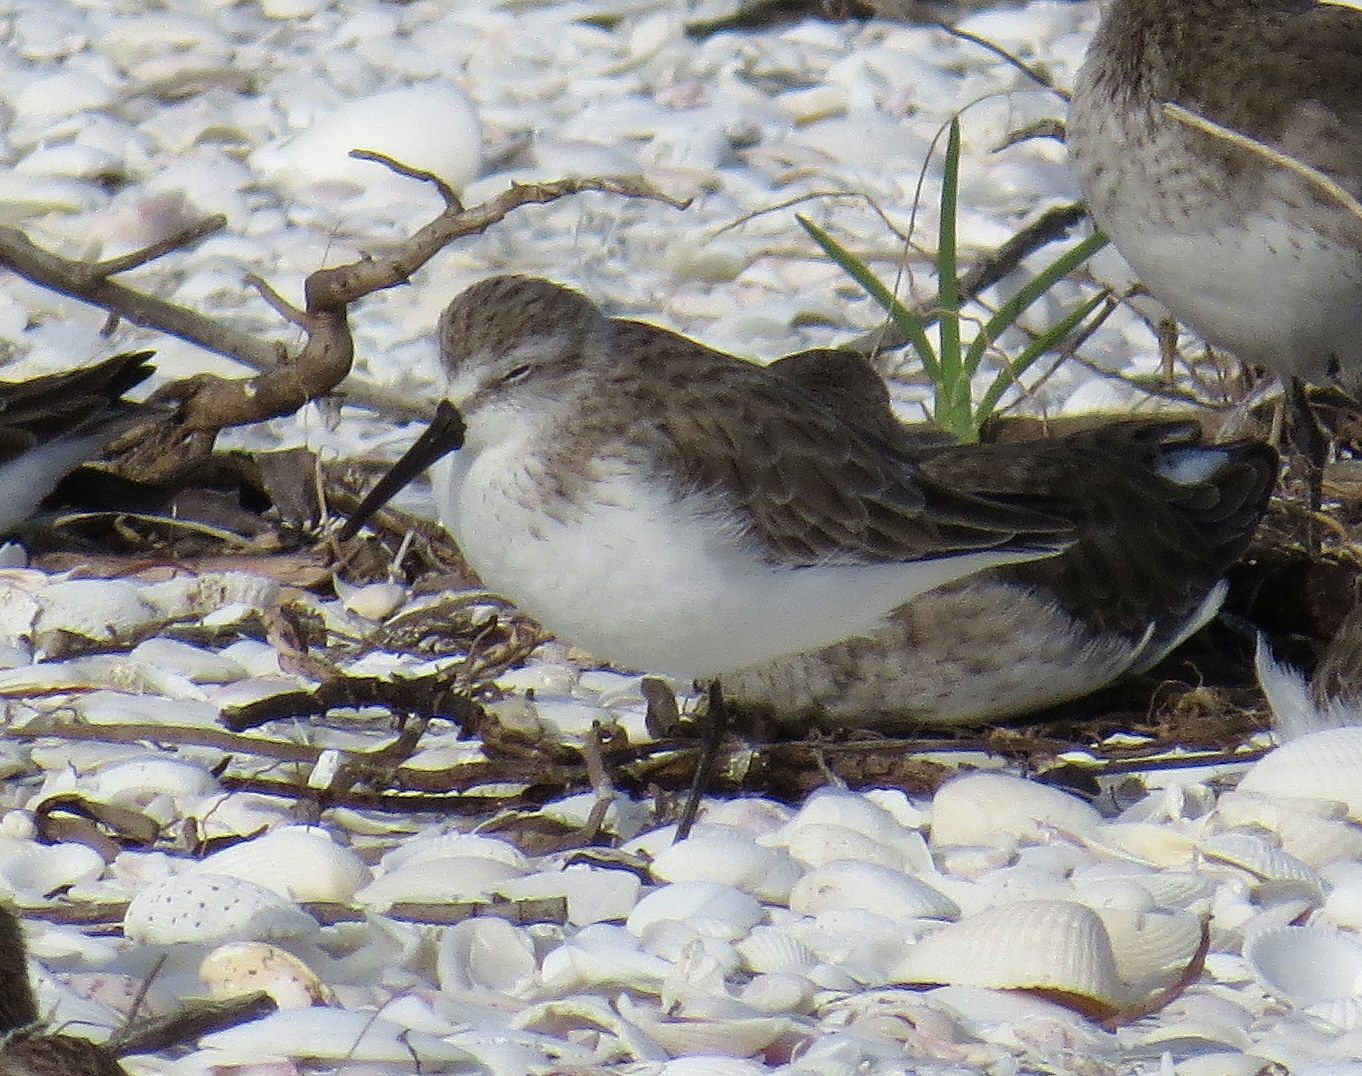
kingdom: Animalia
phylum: Chordata
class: Aves
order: Charadriiformes
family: Scolopacidae
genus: Calidris
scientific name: Calidris mauri
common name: Western sandpiper
